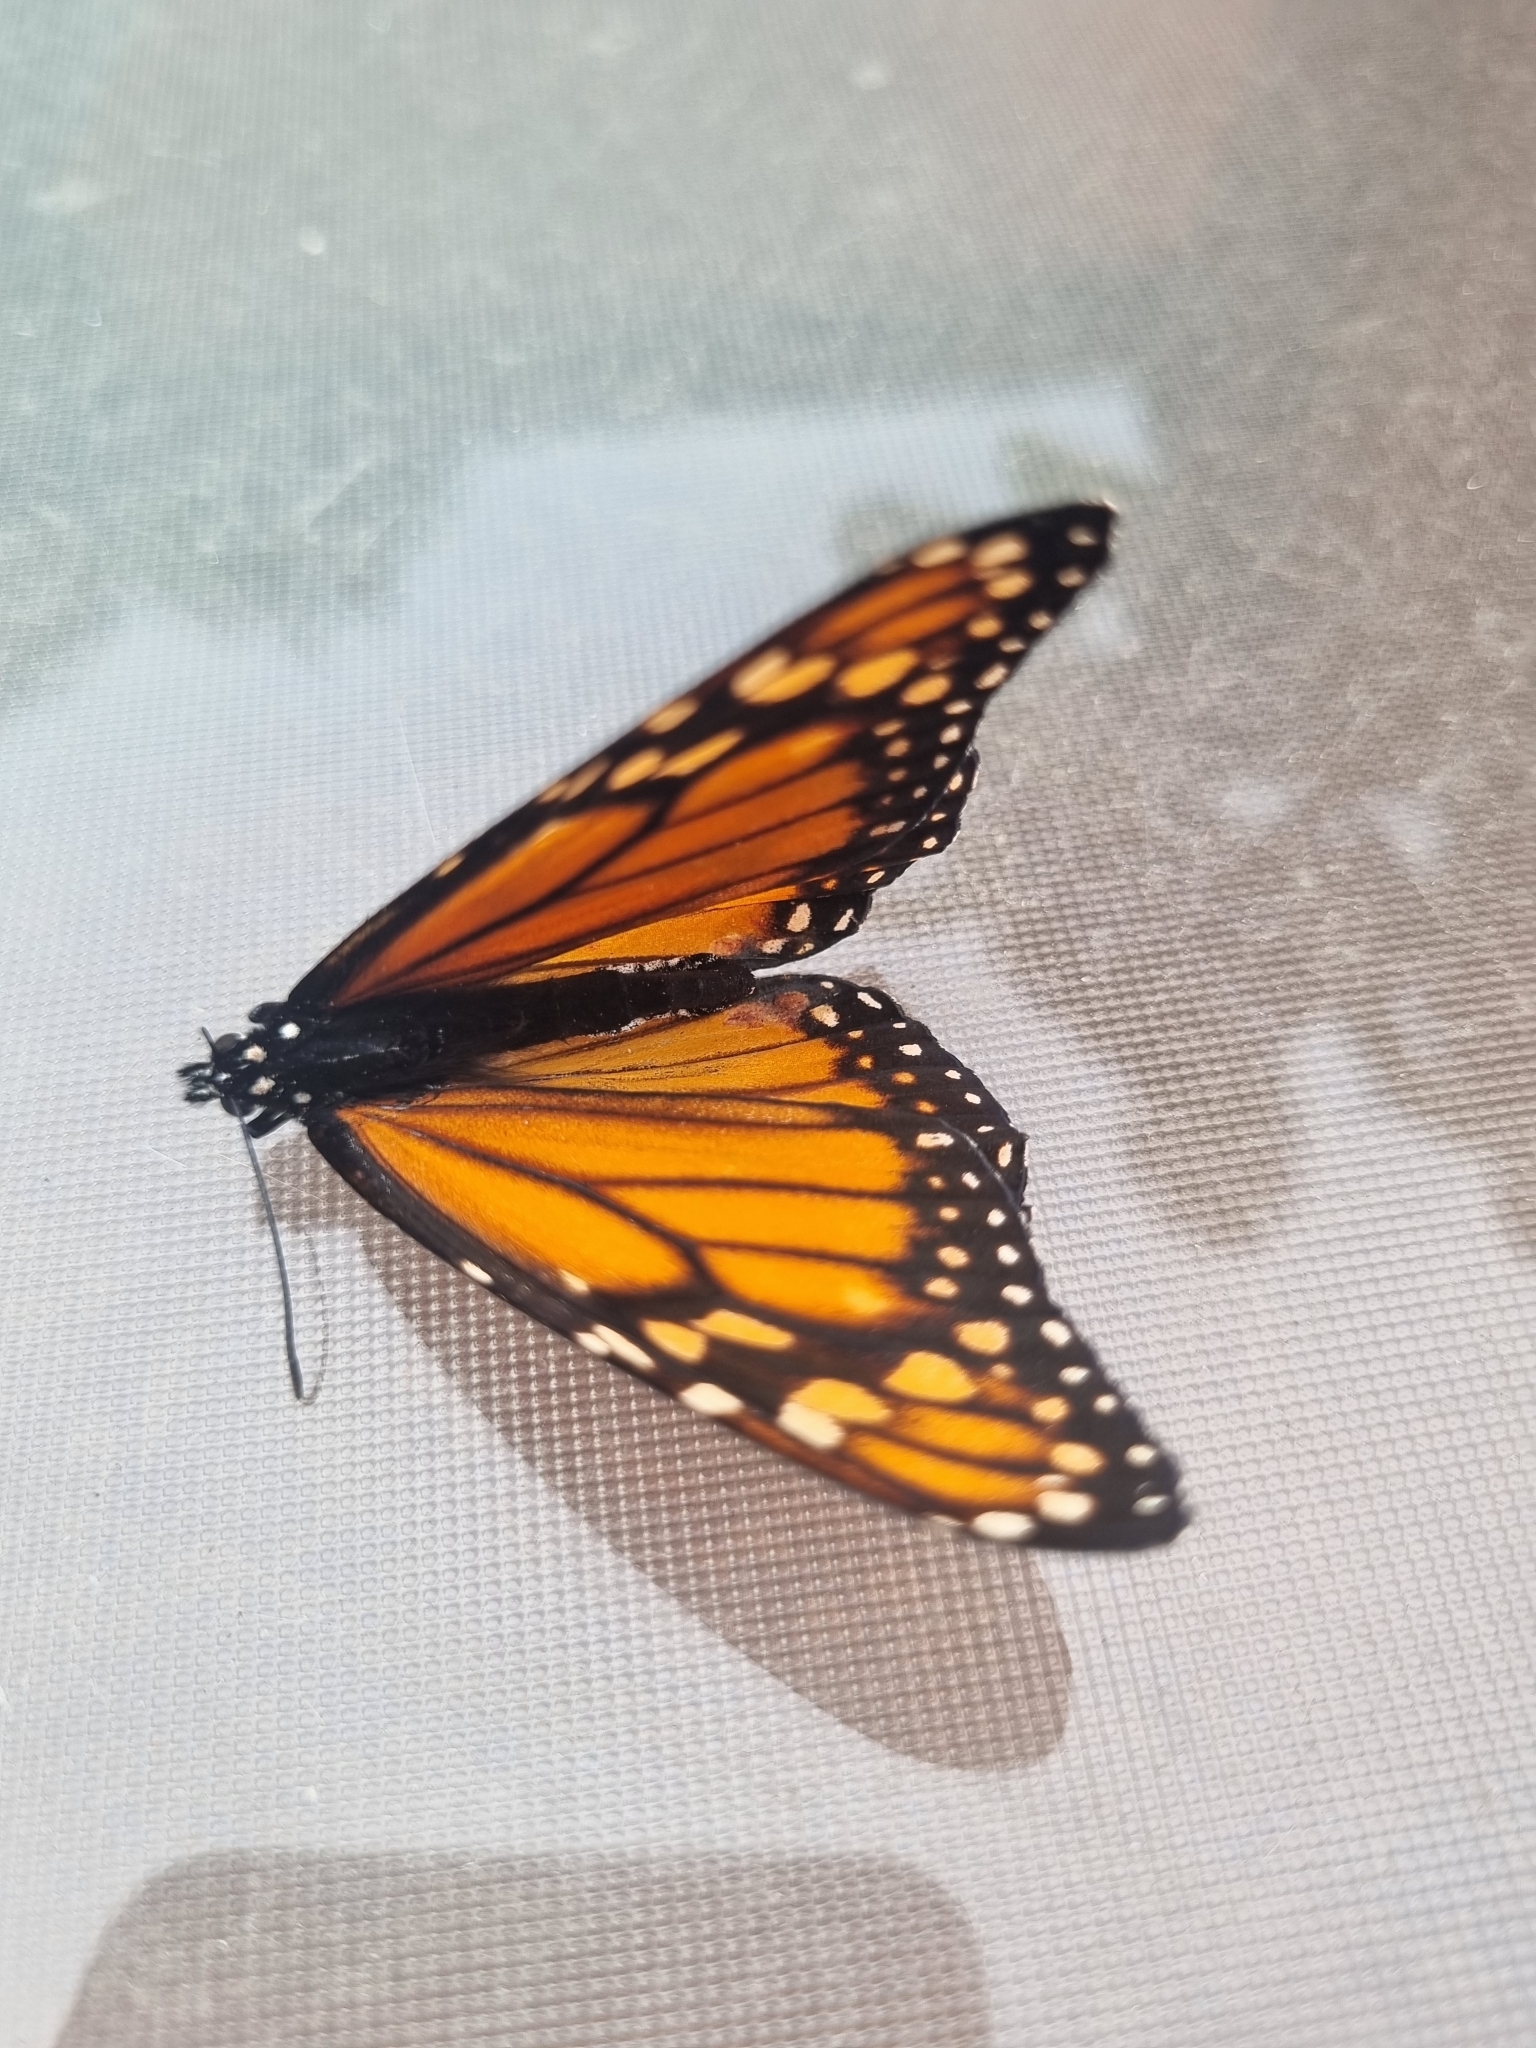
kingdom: Animalia
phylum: Arthropoda
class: Insecta
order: Lepidoptera
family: Nymphalidae
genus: Danaus
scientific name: Danaus erippus
